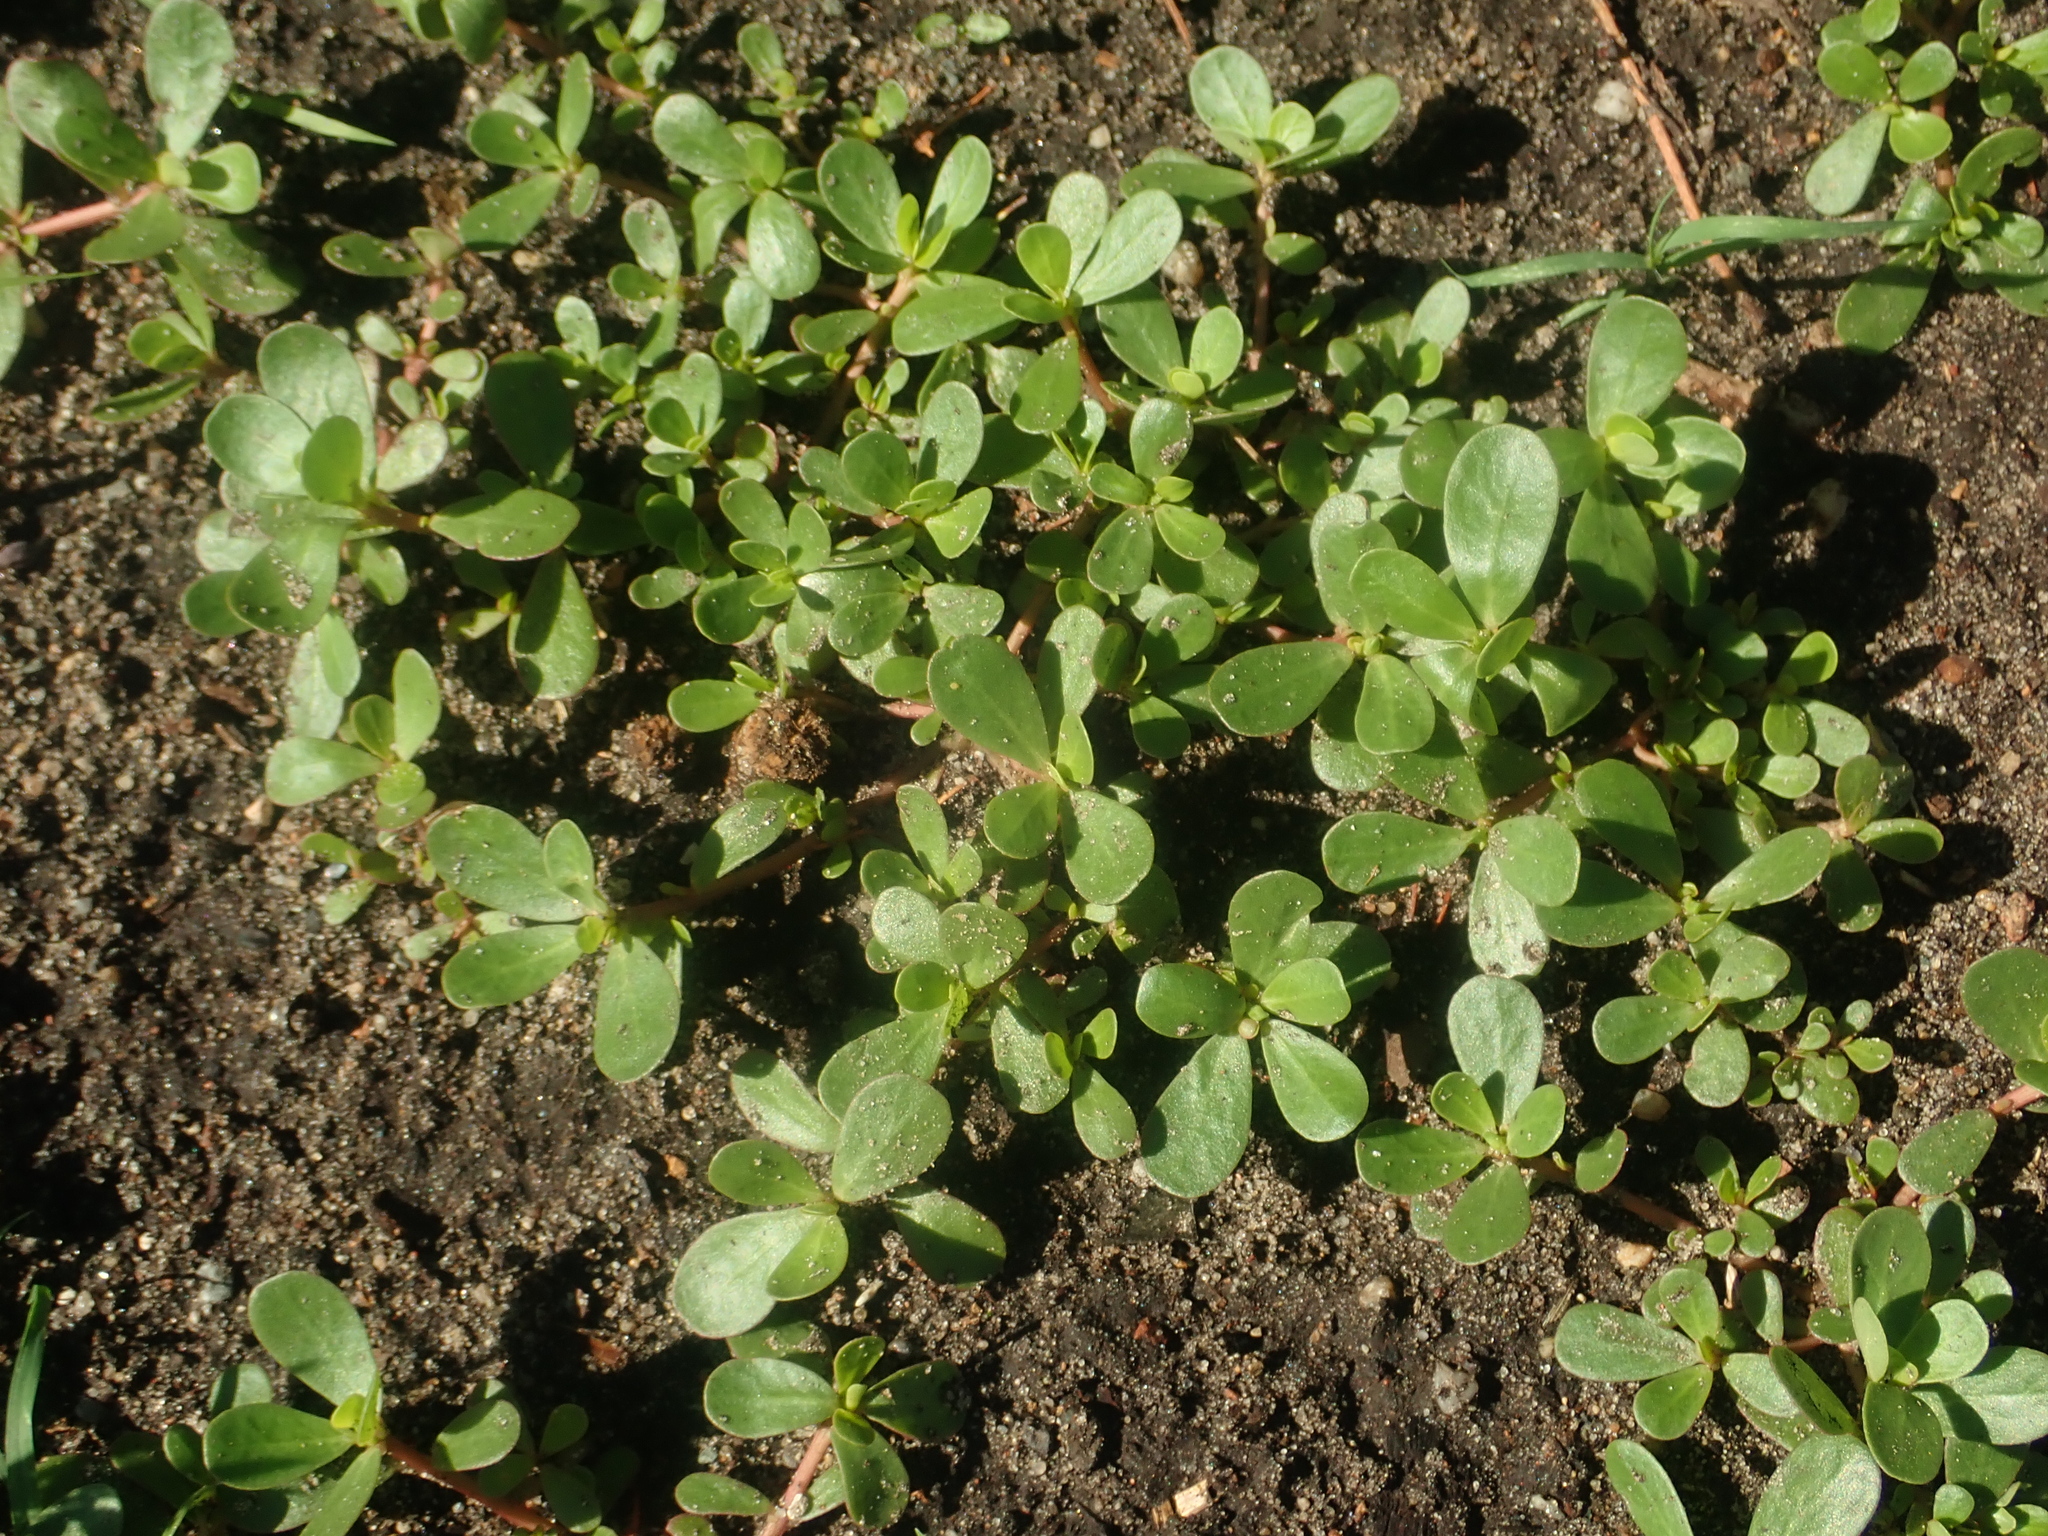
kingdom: Plantae
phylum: Tracheophyta
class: Magnoliopsida
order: Caryophyllales
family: Portulacaceae
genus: Portulaca
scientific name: Portulaca oleracea
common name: Common purslane
